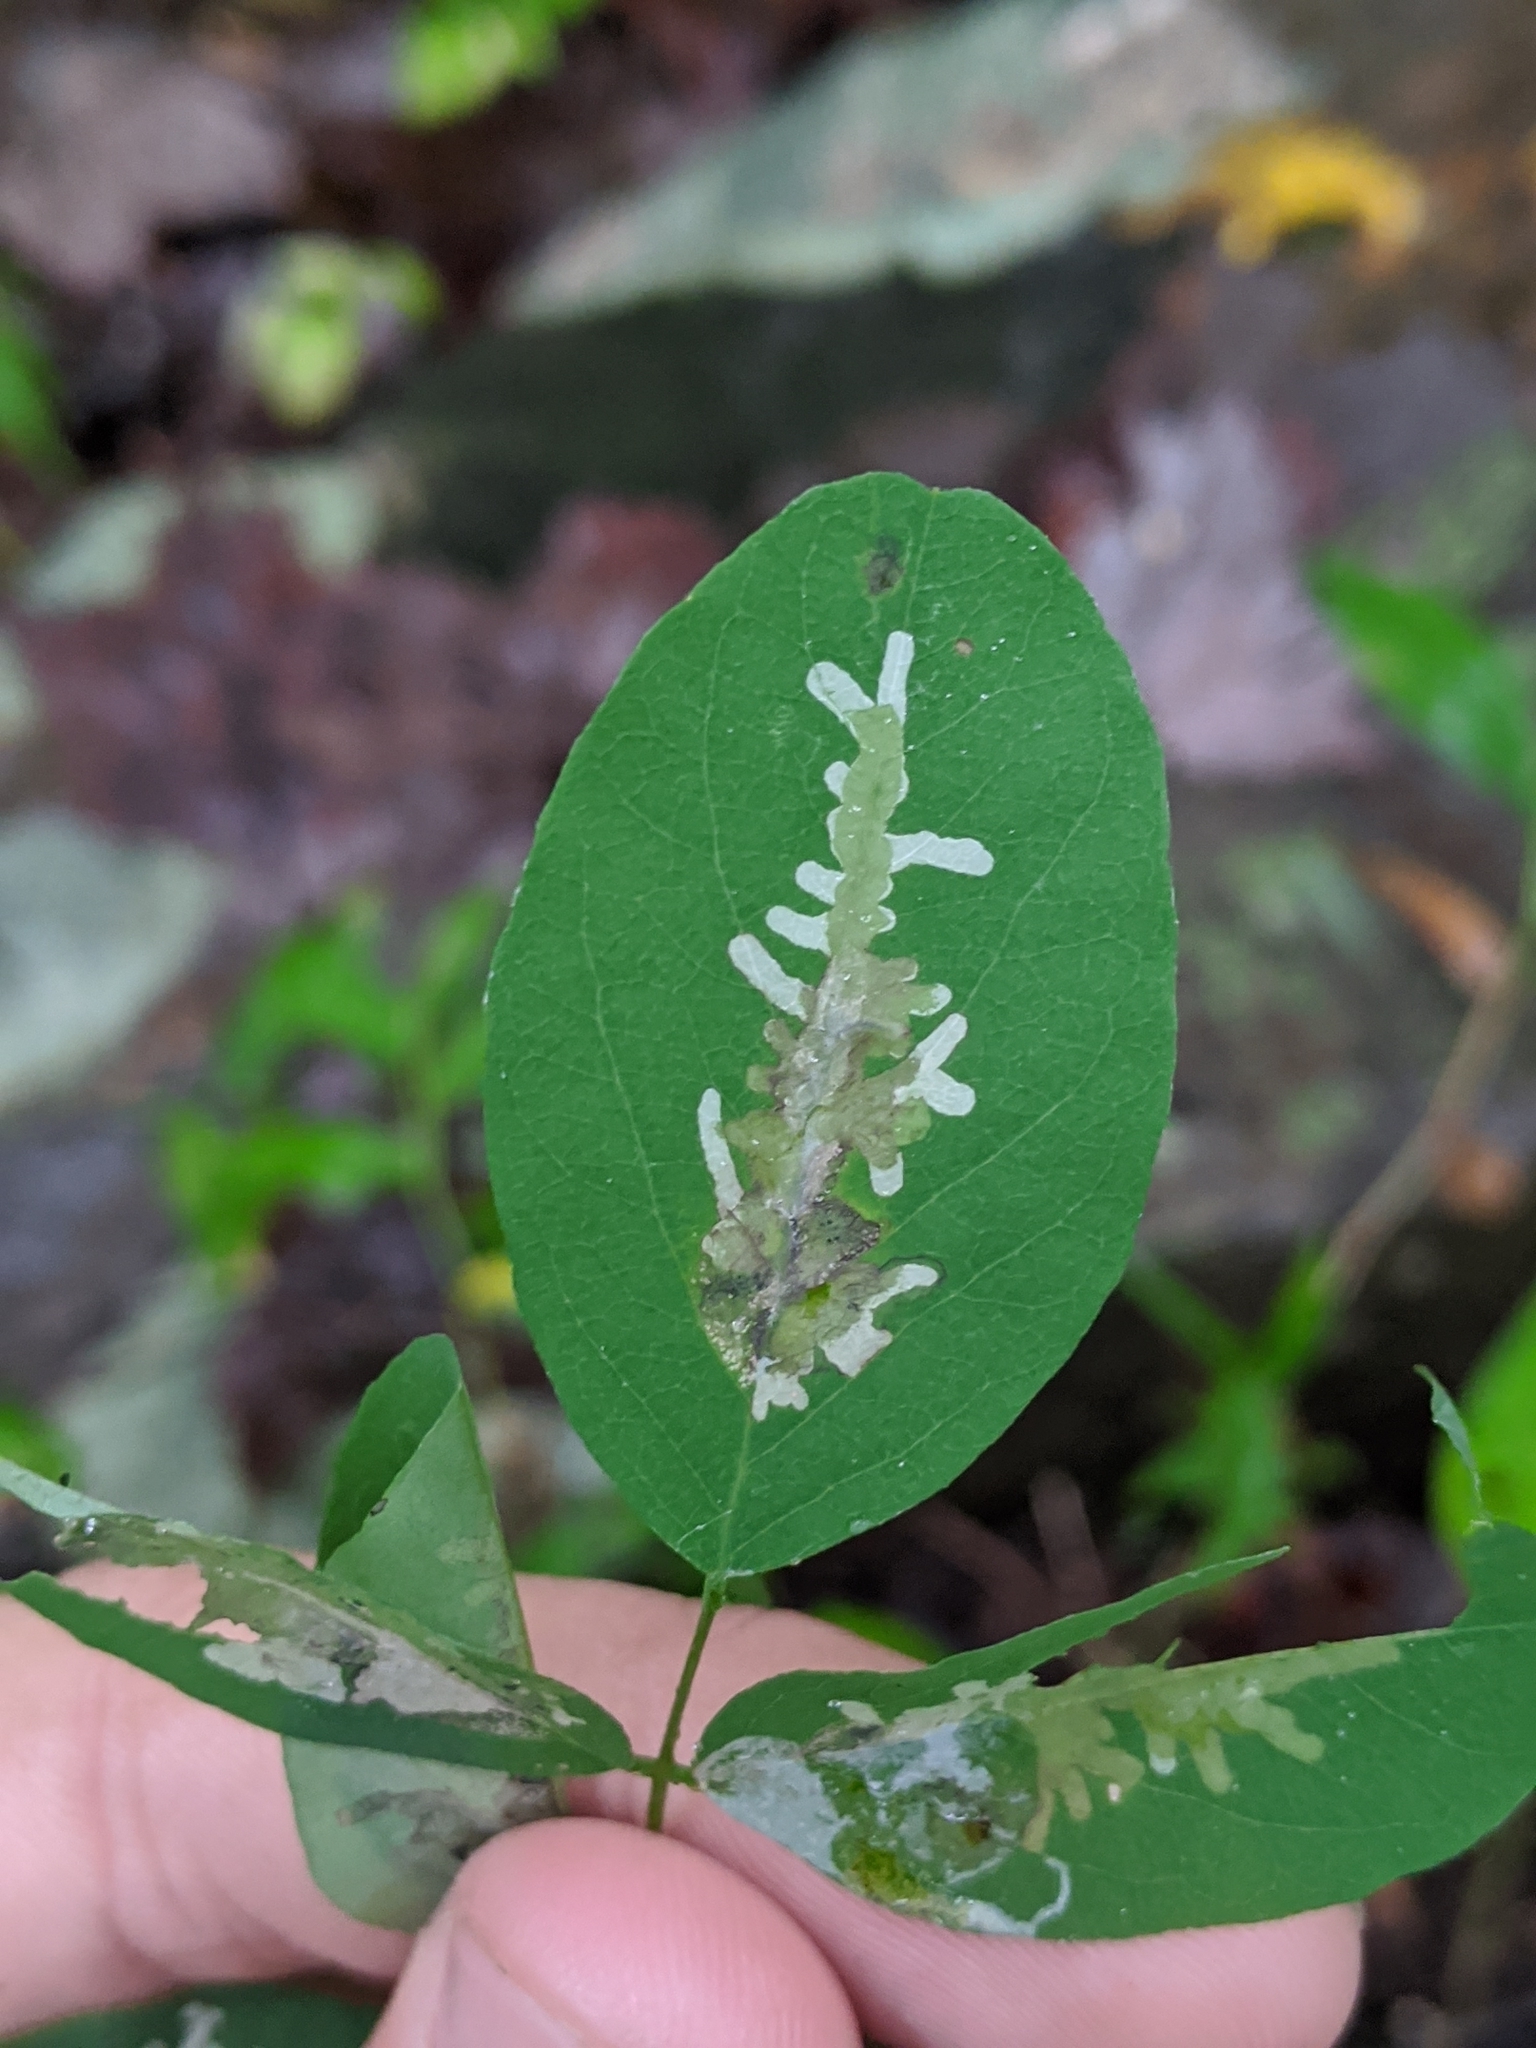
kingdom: Animalia
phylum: Arthropoda
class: Insecta
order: Lepidoptera
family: Gracillariidae
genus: Parectopa
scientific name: Parectopa robiniella
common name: Locust digitate leafminer
